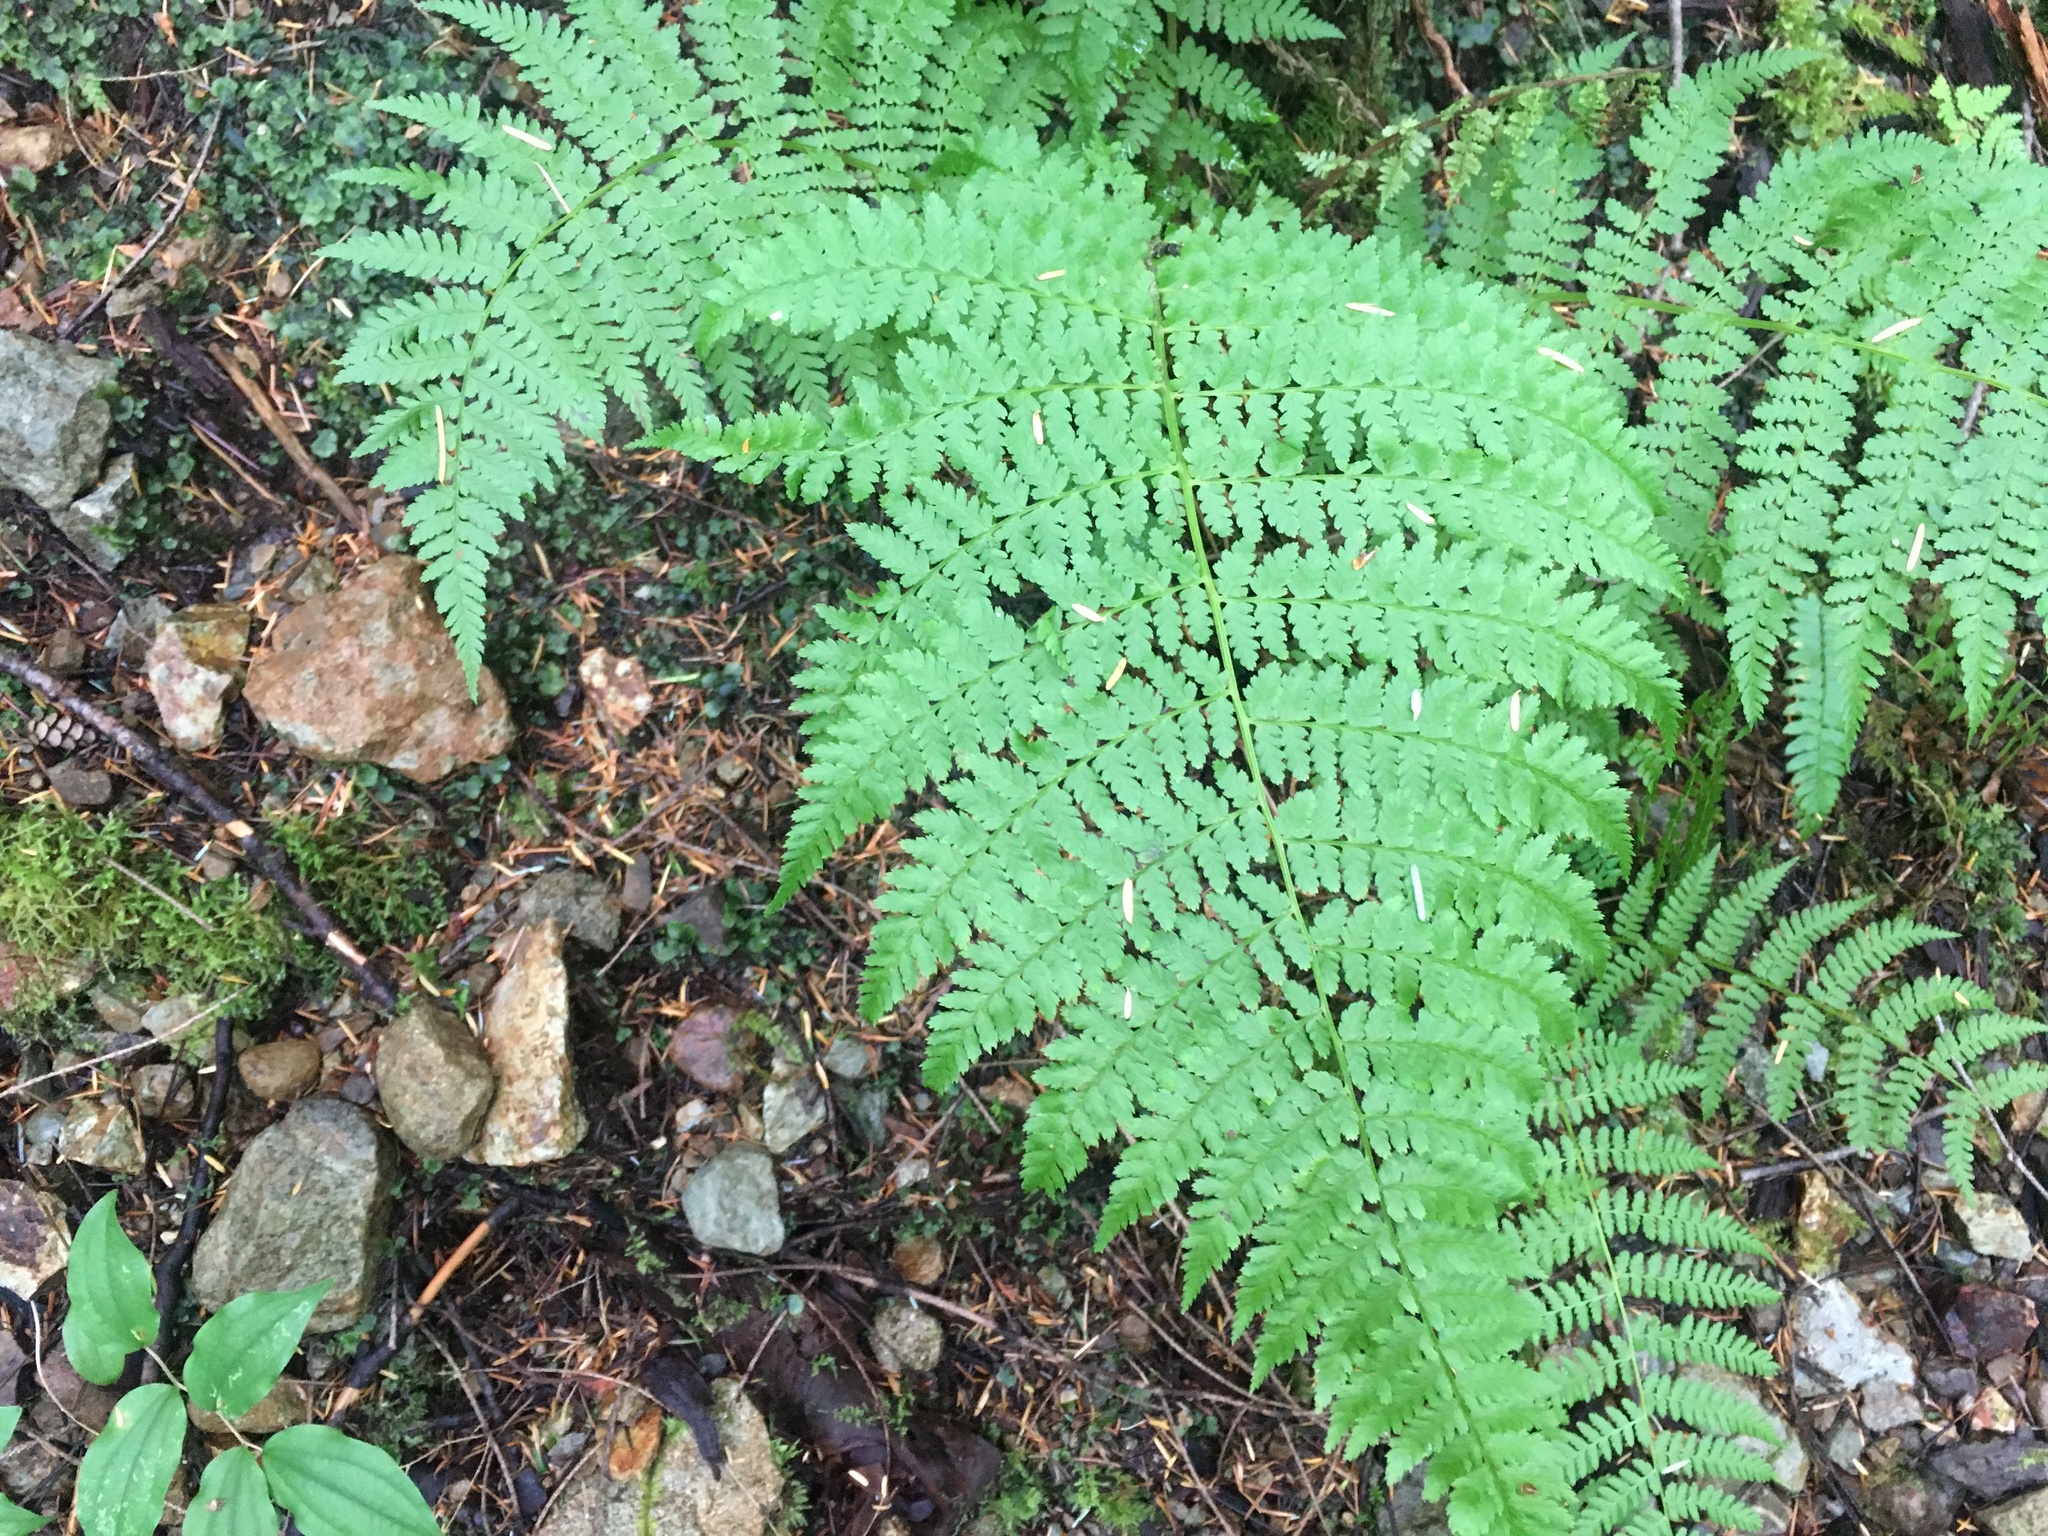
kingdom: Plantae
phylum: Tracheophyta
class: Polypodiopsida
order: Polypodiales
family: Athyriaceae
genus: Athyrium
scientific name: Athyrium cyclosorum
